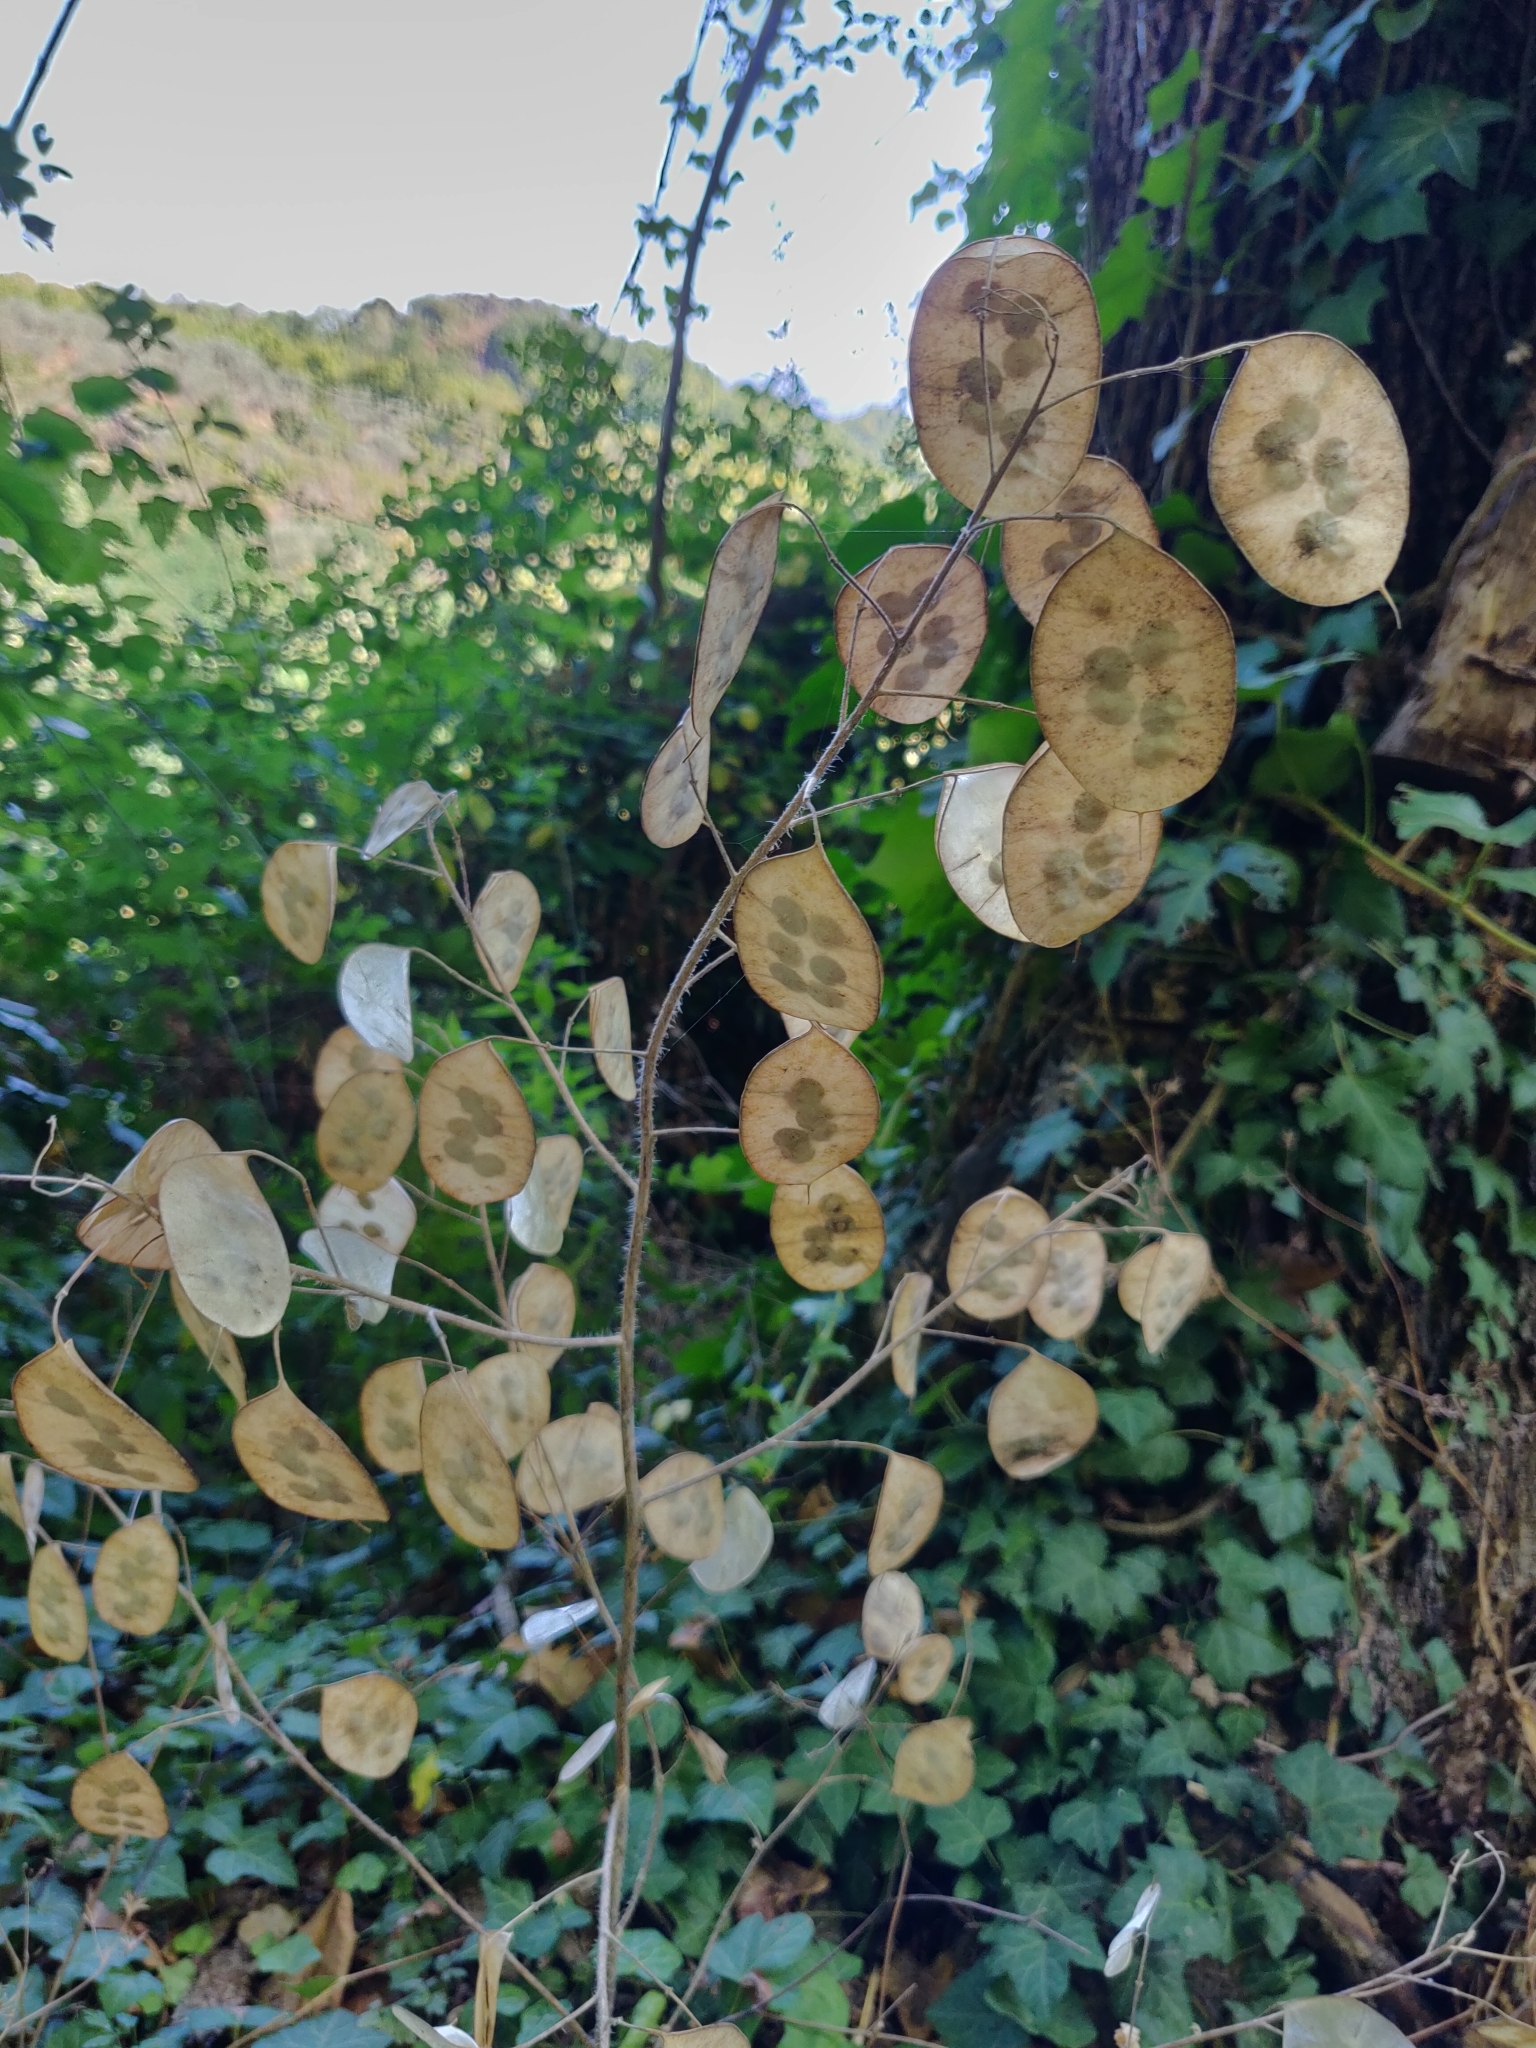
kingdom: Plantae
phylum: Tracheophyta
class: Magnoliopsida
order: Brassicales
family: Brassicaceae
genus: Lunaria
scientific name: Lunaria annua
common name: Honesty
